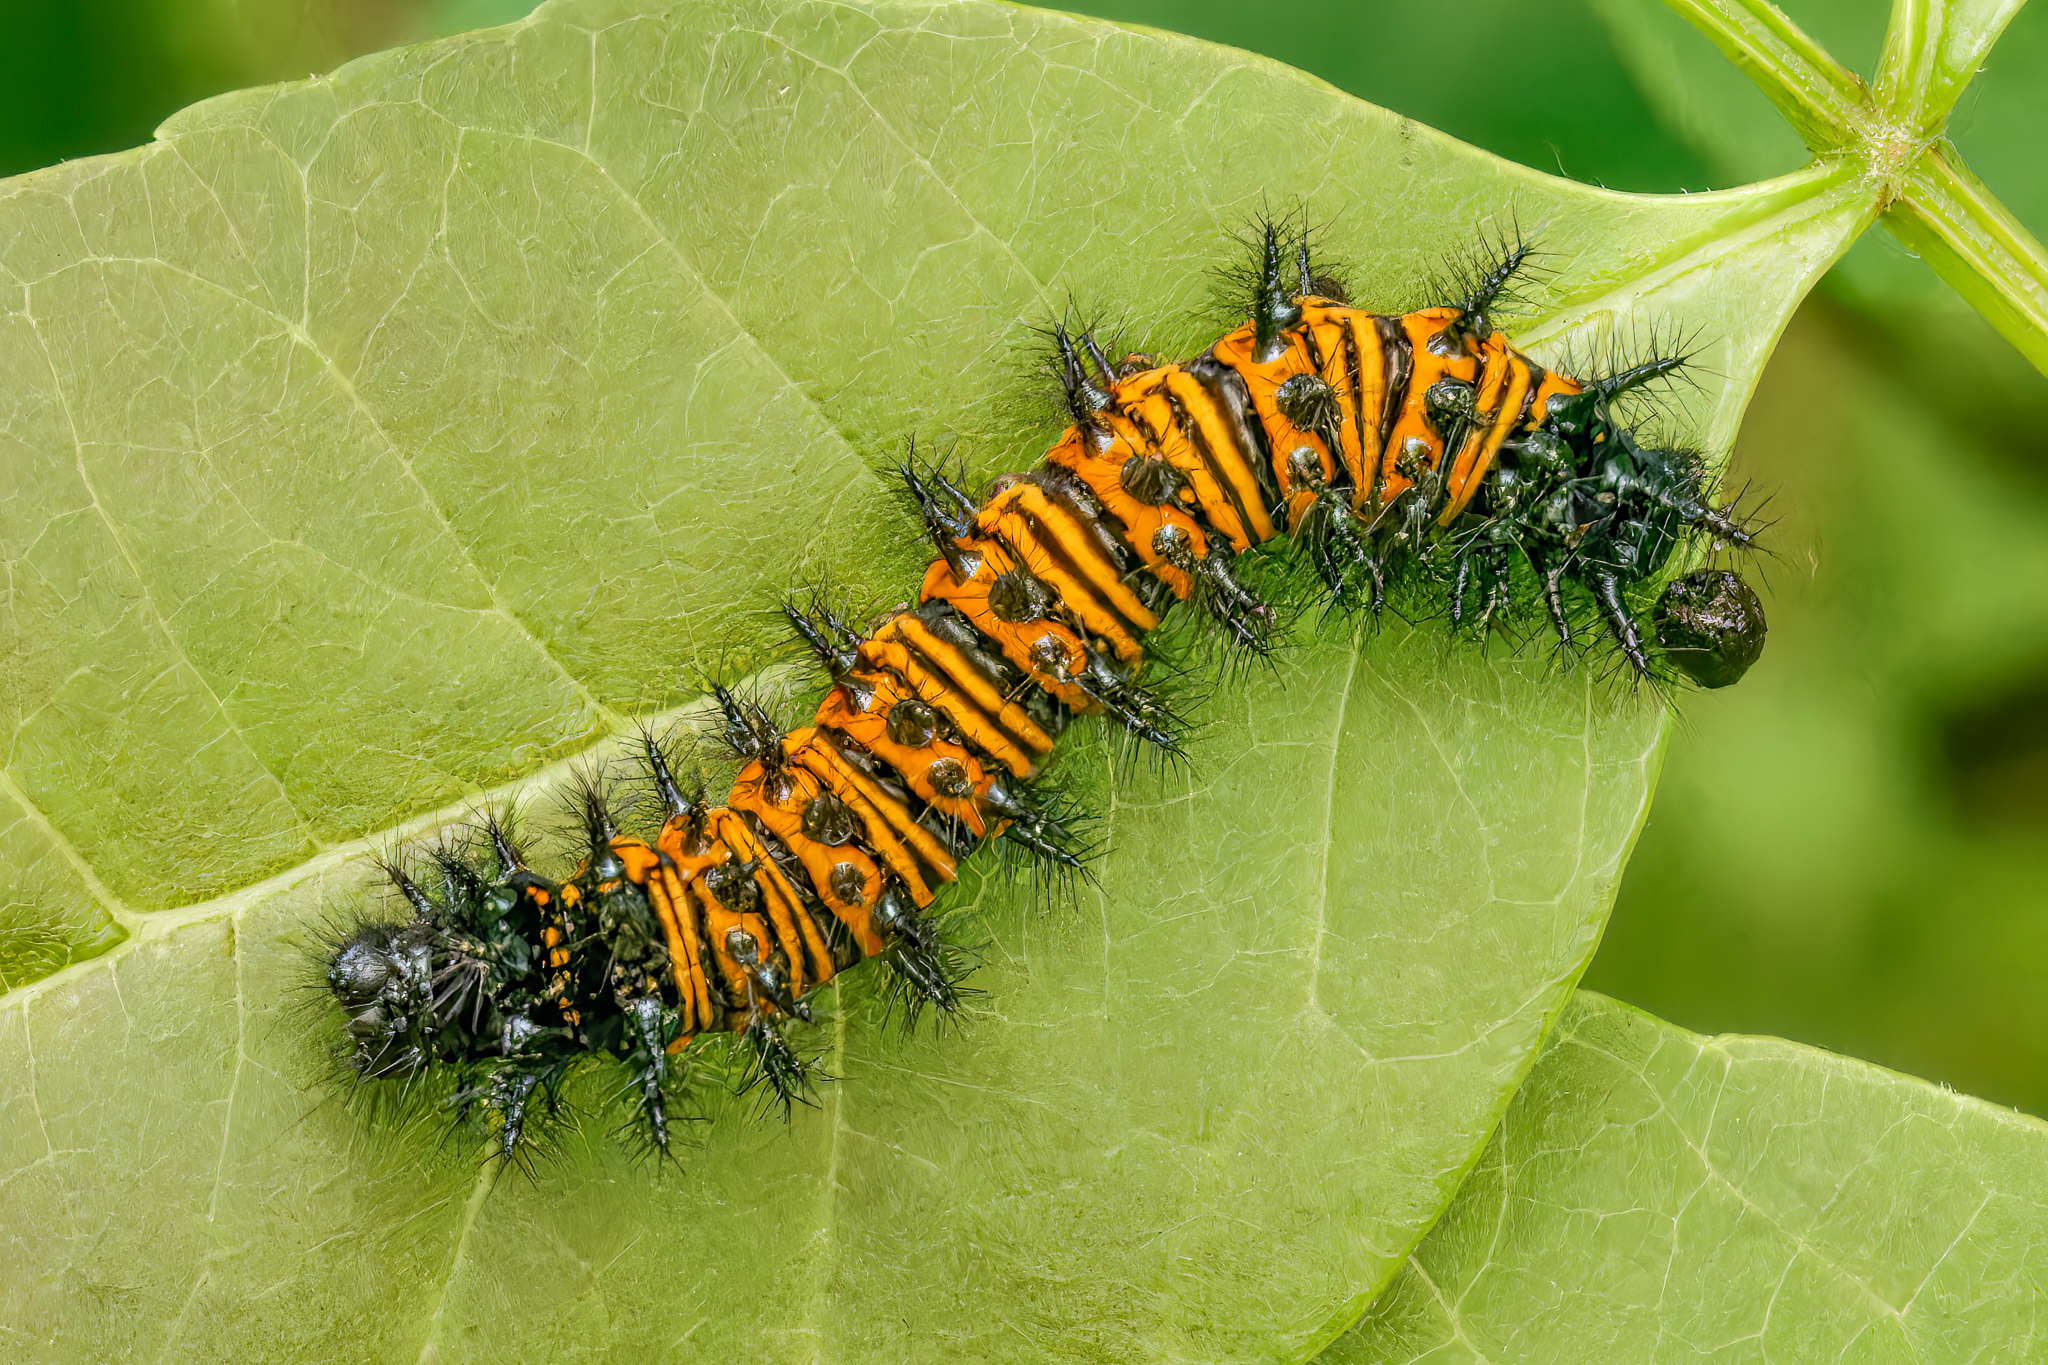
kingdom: Animalia
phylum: Arthropoda
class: Insecta
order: Lepidoptera
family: Nymphalidae
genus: Euphydryas
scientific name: Euphydryas phaeton
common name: Baltimore checkerspot
